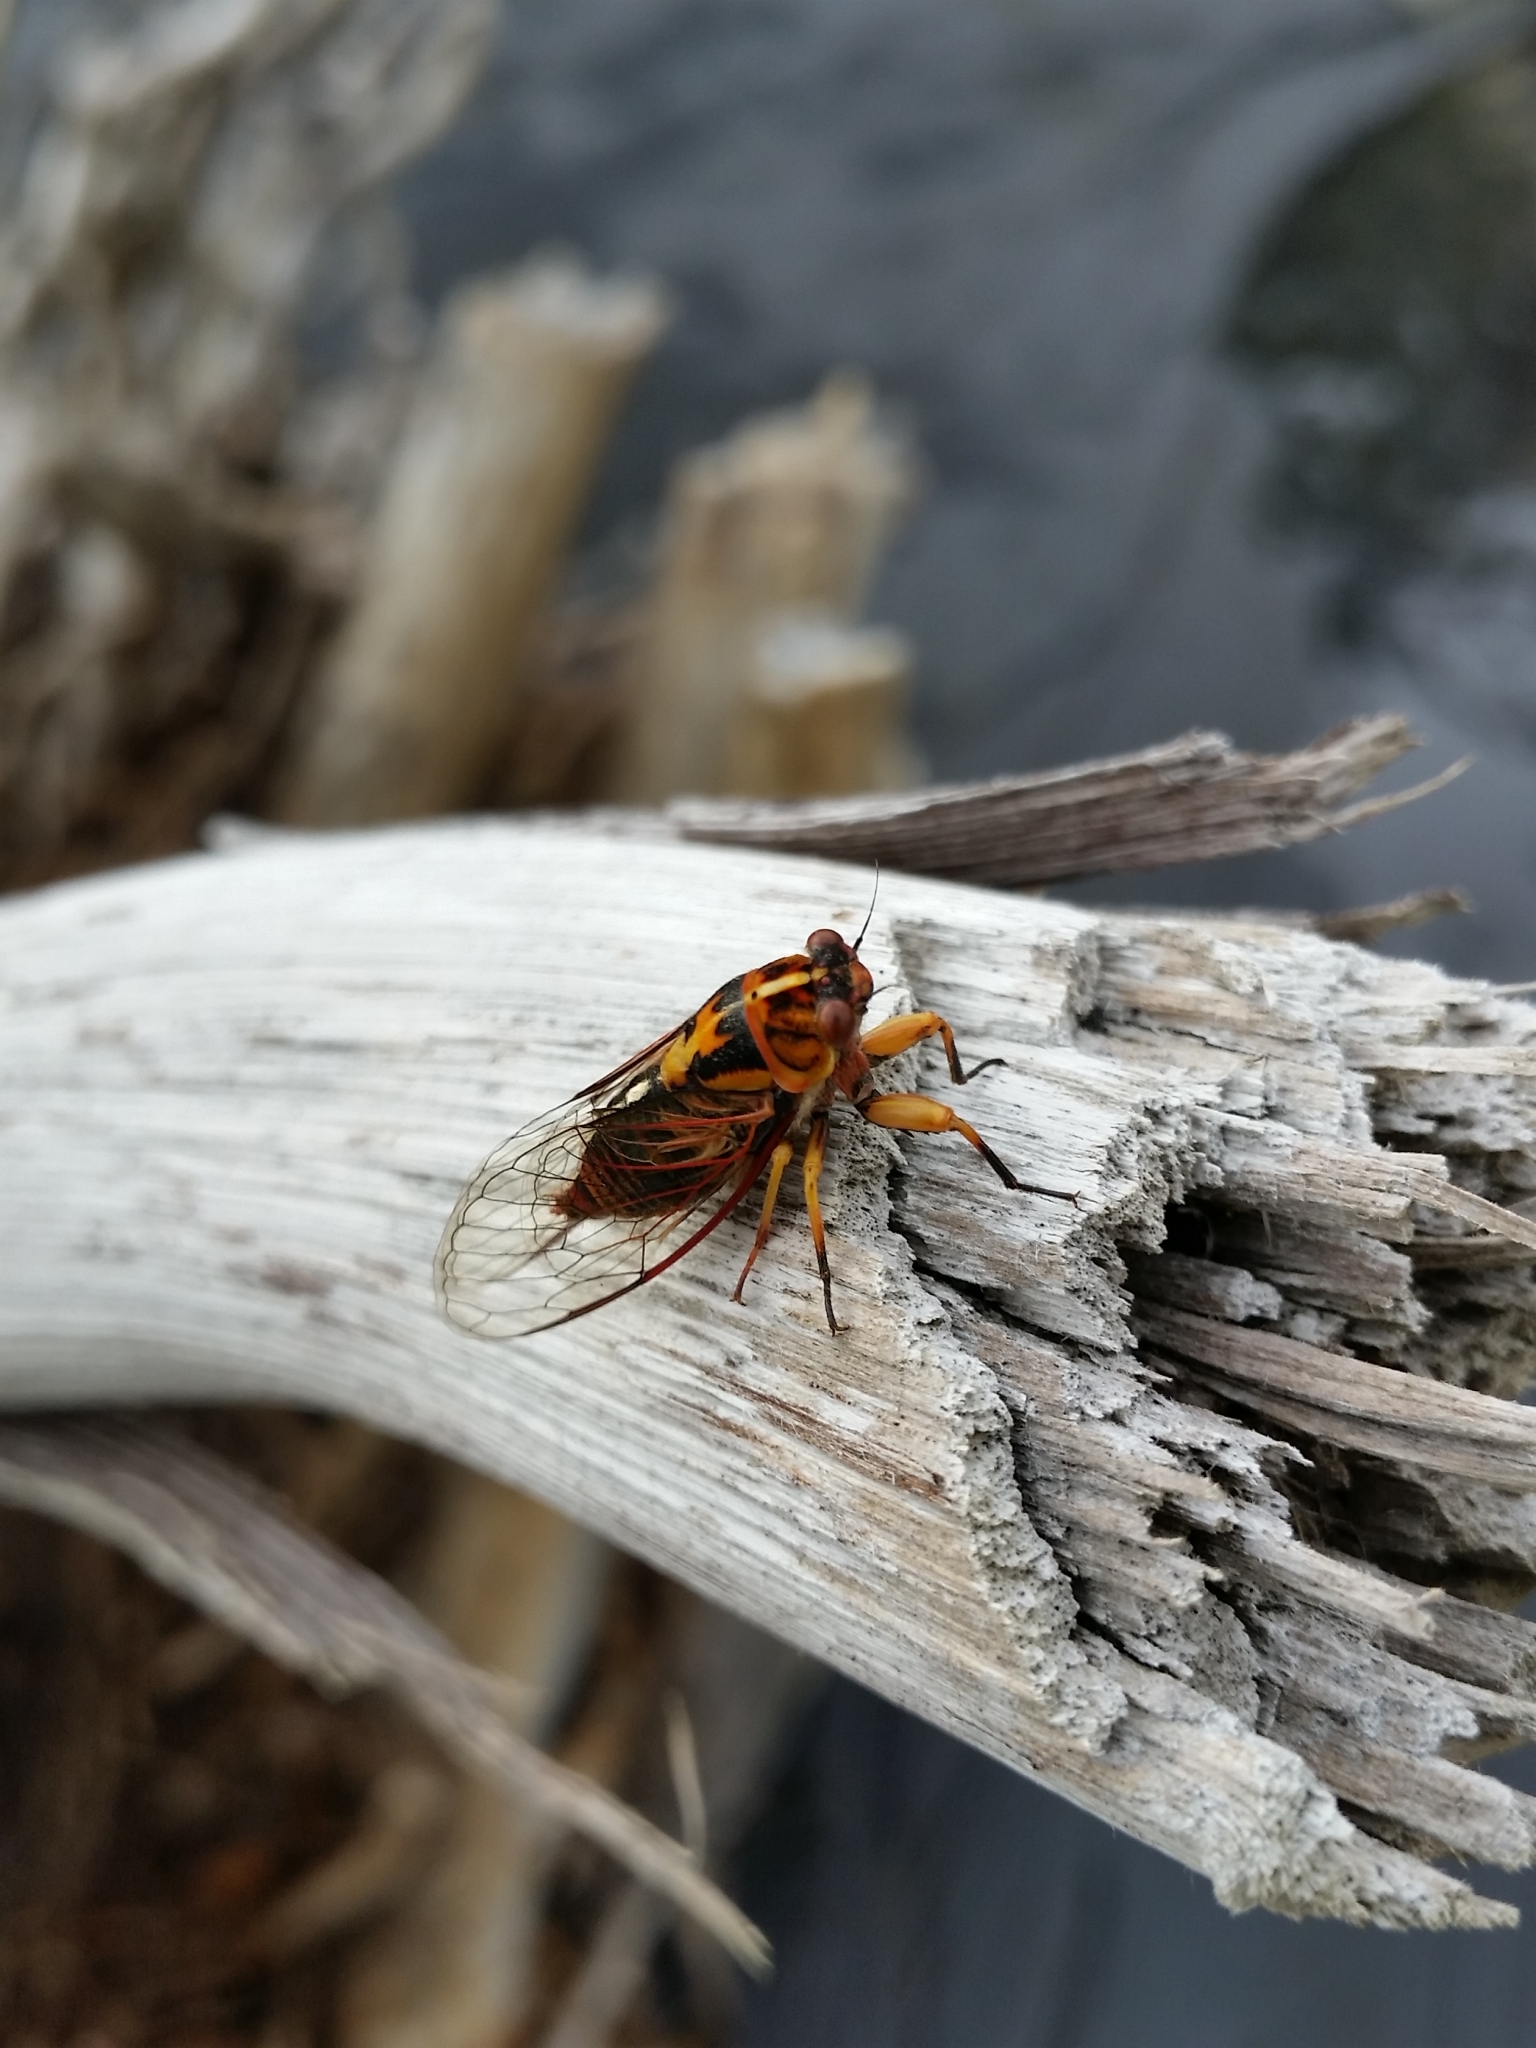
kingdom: Animalia
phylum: Arthropoda
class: Insecta
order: Hemiptera
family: Cicadidae
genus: Kikihia
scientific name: Kikihia muta
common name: Variable cicada
